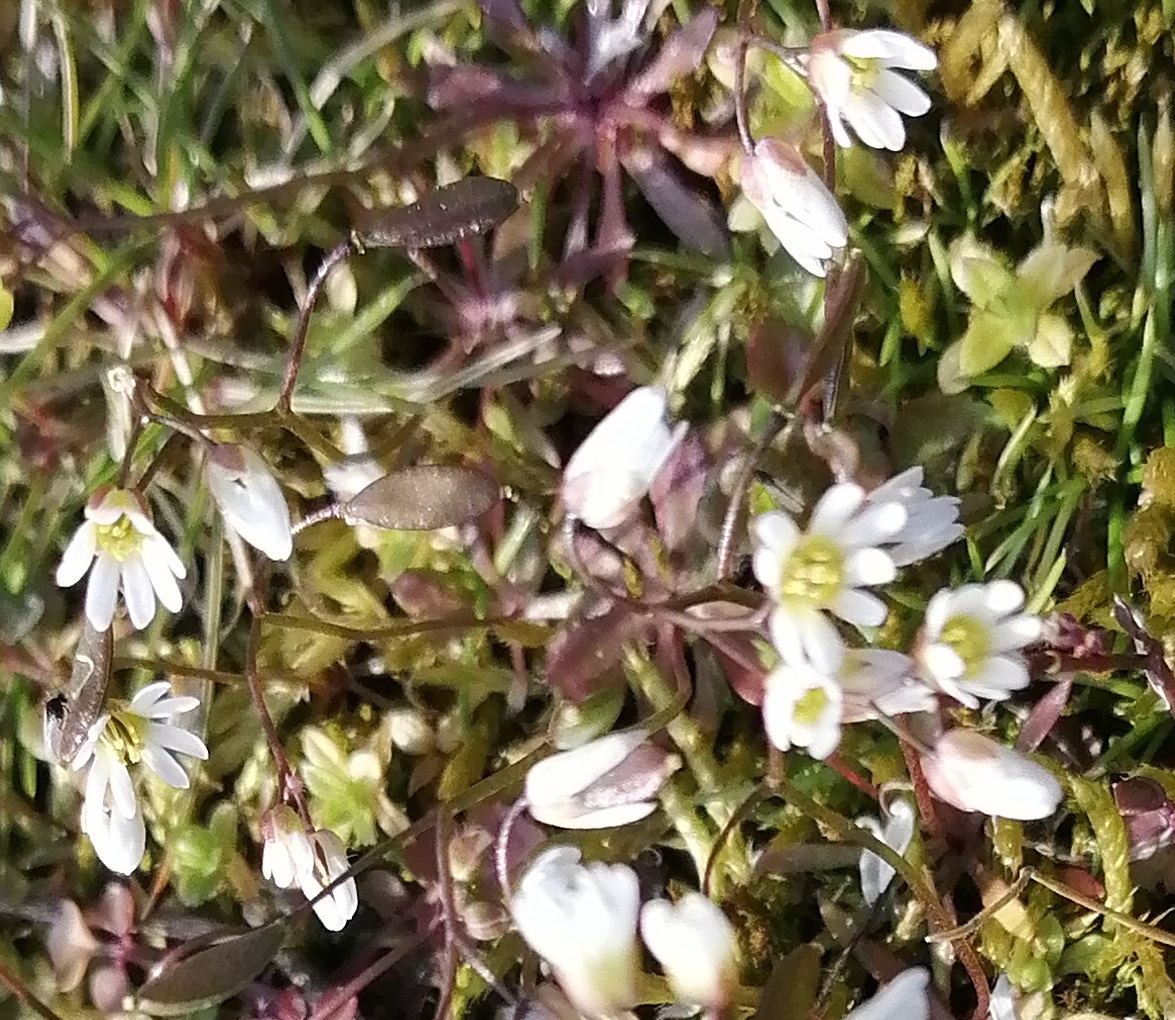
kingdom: Plantae
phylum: Tracheophyta
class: Magnoliopsida
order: Brassicales
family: Brassicaceae
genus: Draba
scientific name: Draba verna
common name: Spring draba
